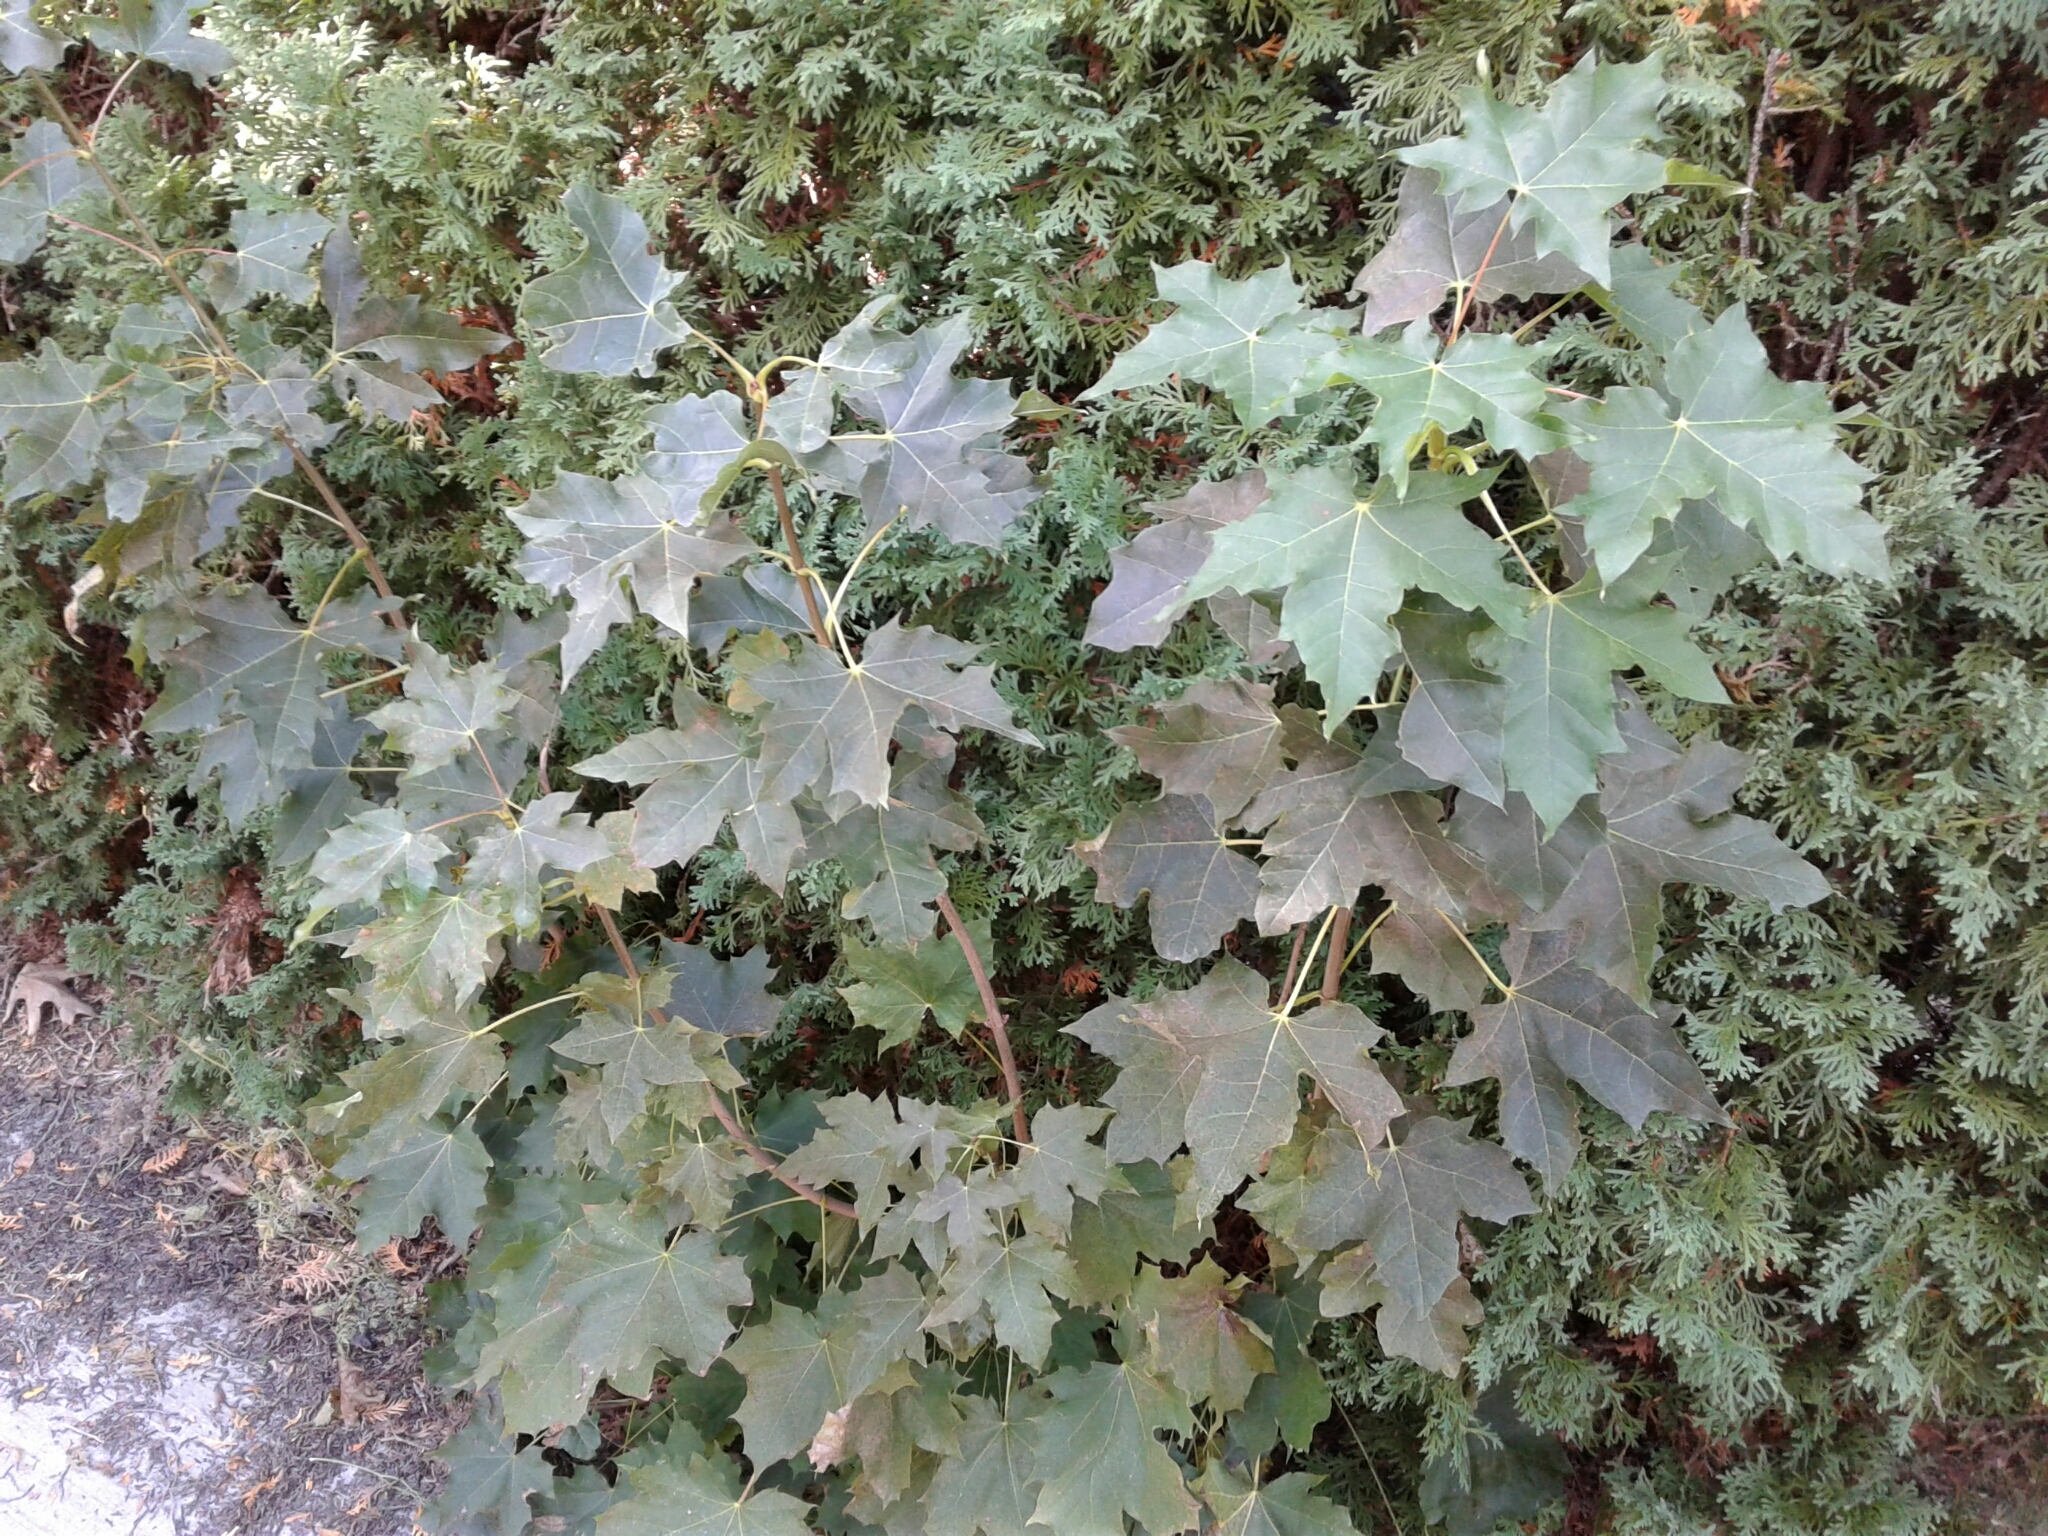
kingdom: Plantae
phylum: Tracheophyta
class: Magnoliopsida
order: Sapindales
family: Sapindaceae
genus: Acer
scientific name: Acer platanoides
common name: Norway maple
